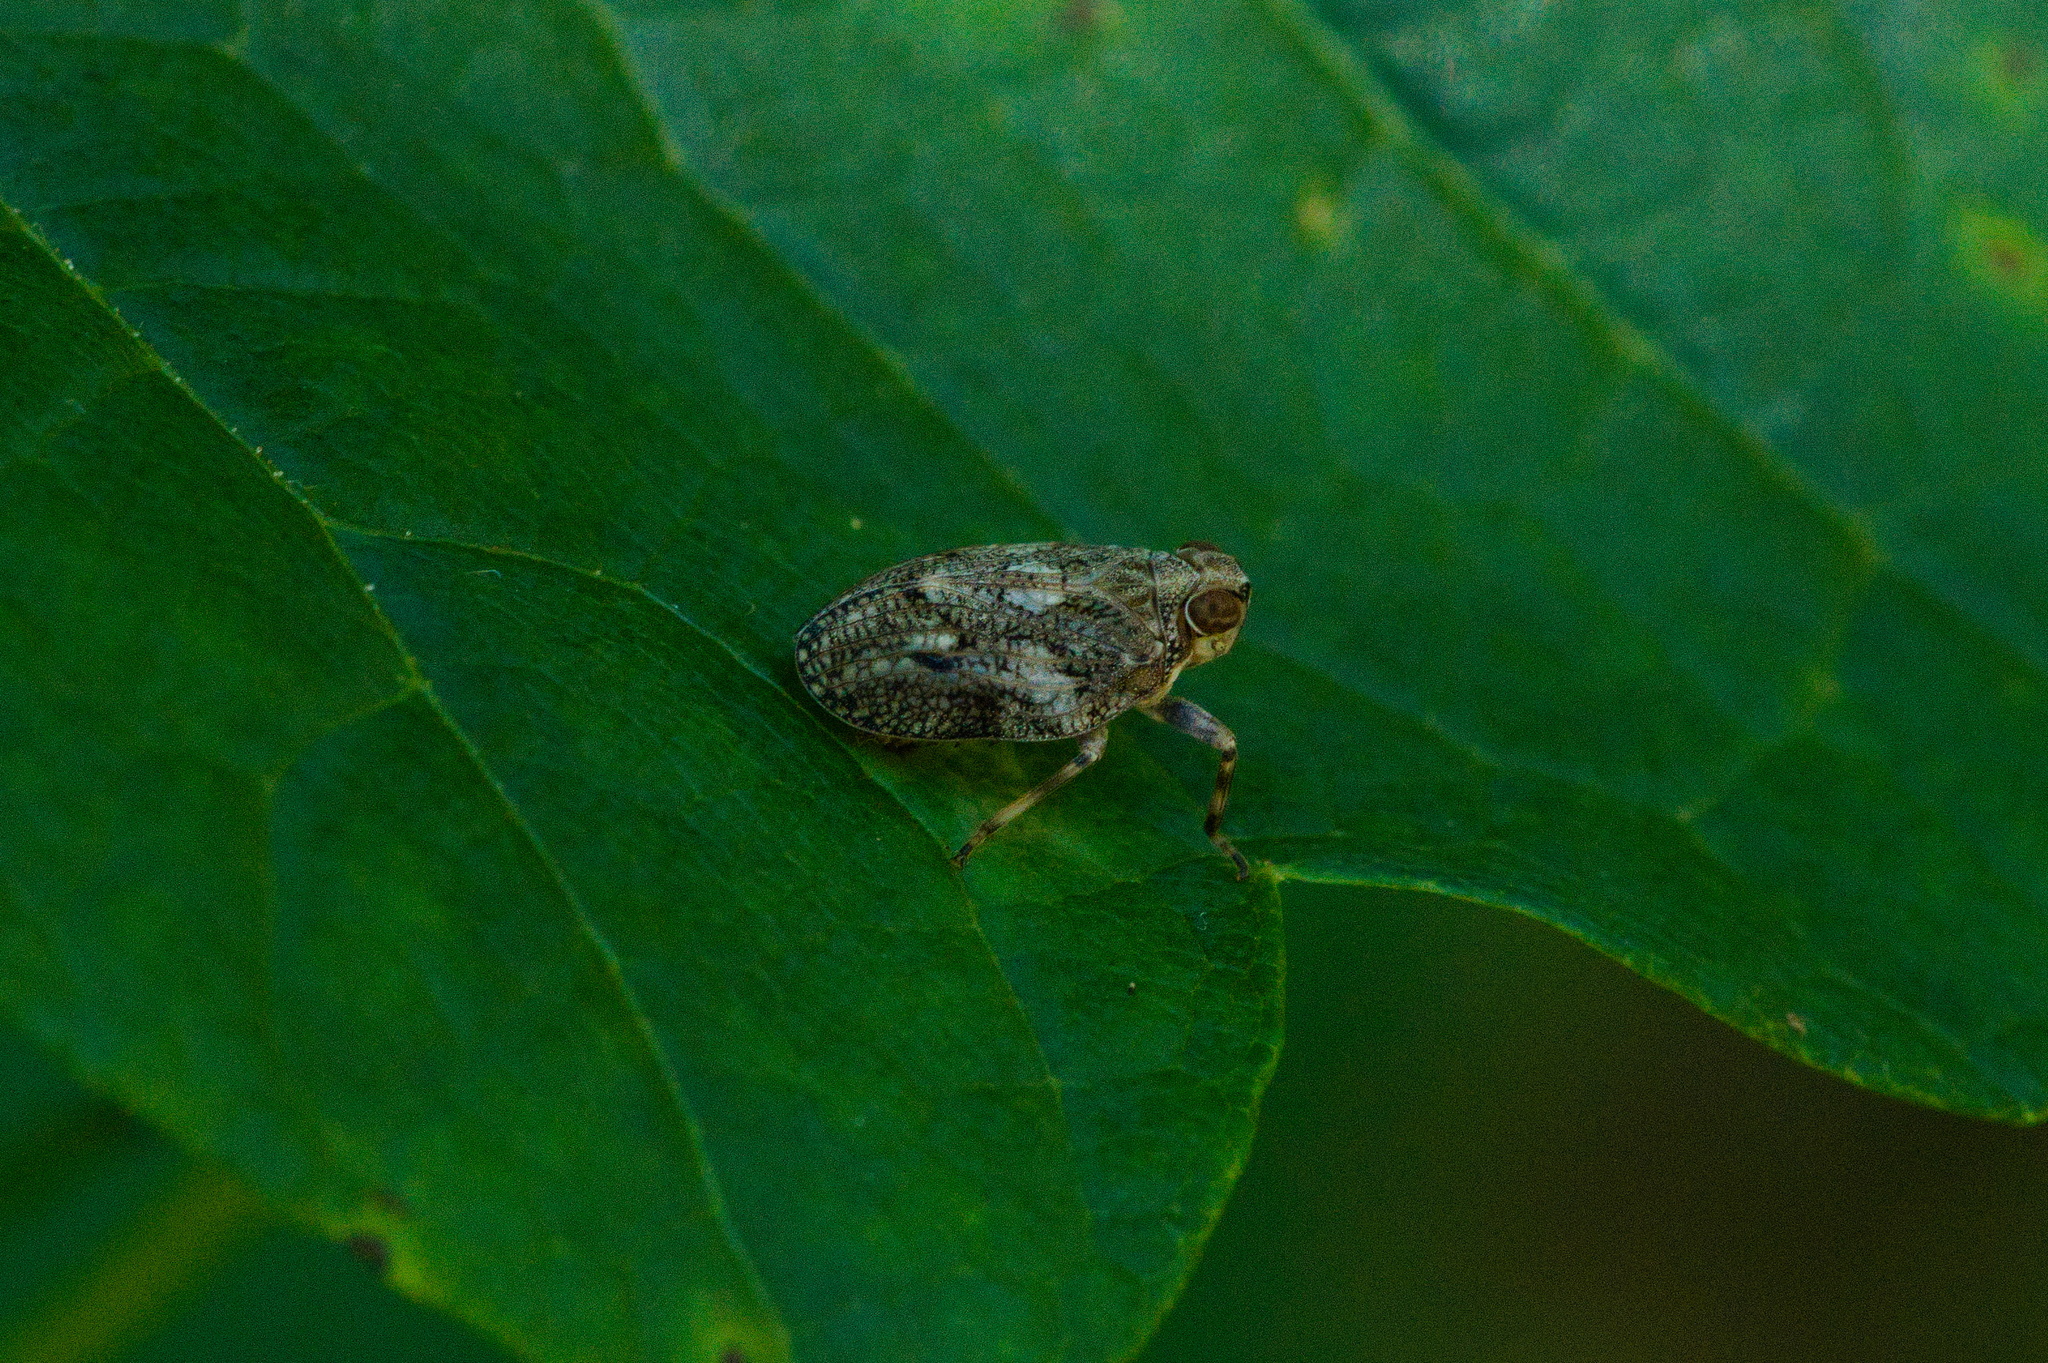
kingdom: Animalia
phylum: Arthropoda
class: Insecta
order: Hemiptera
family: Issidae
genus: Issus
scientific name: Issus coleoptratus
